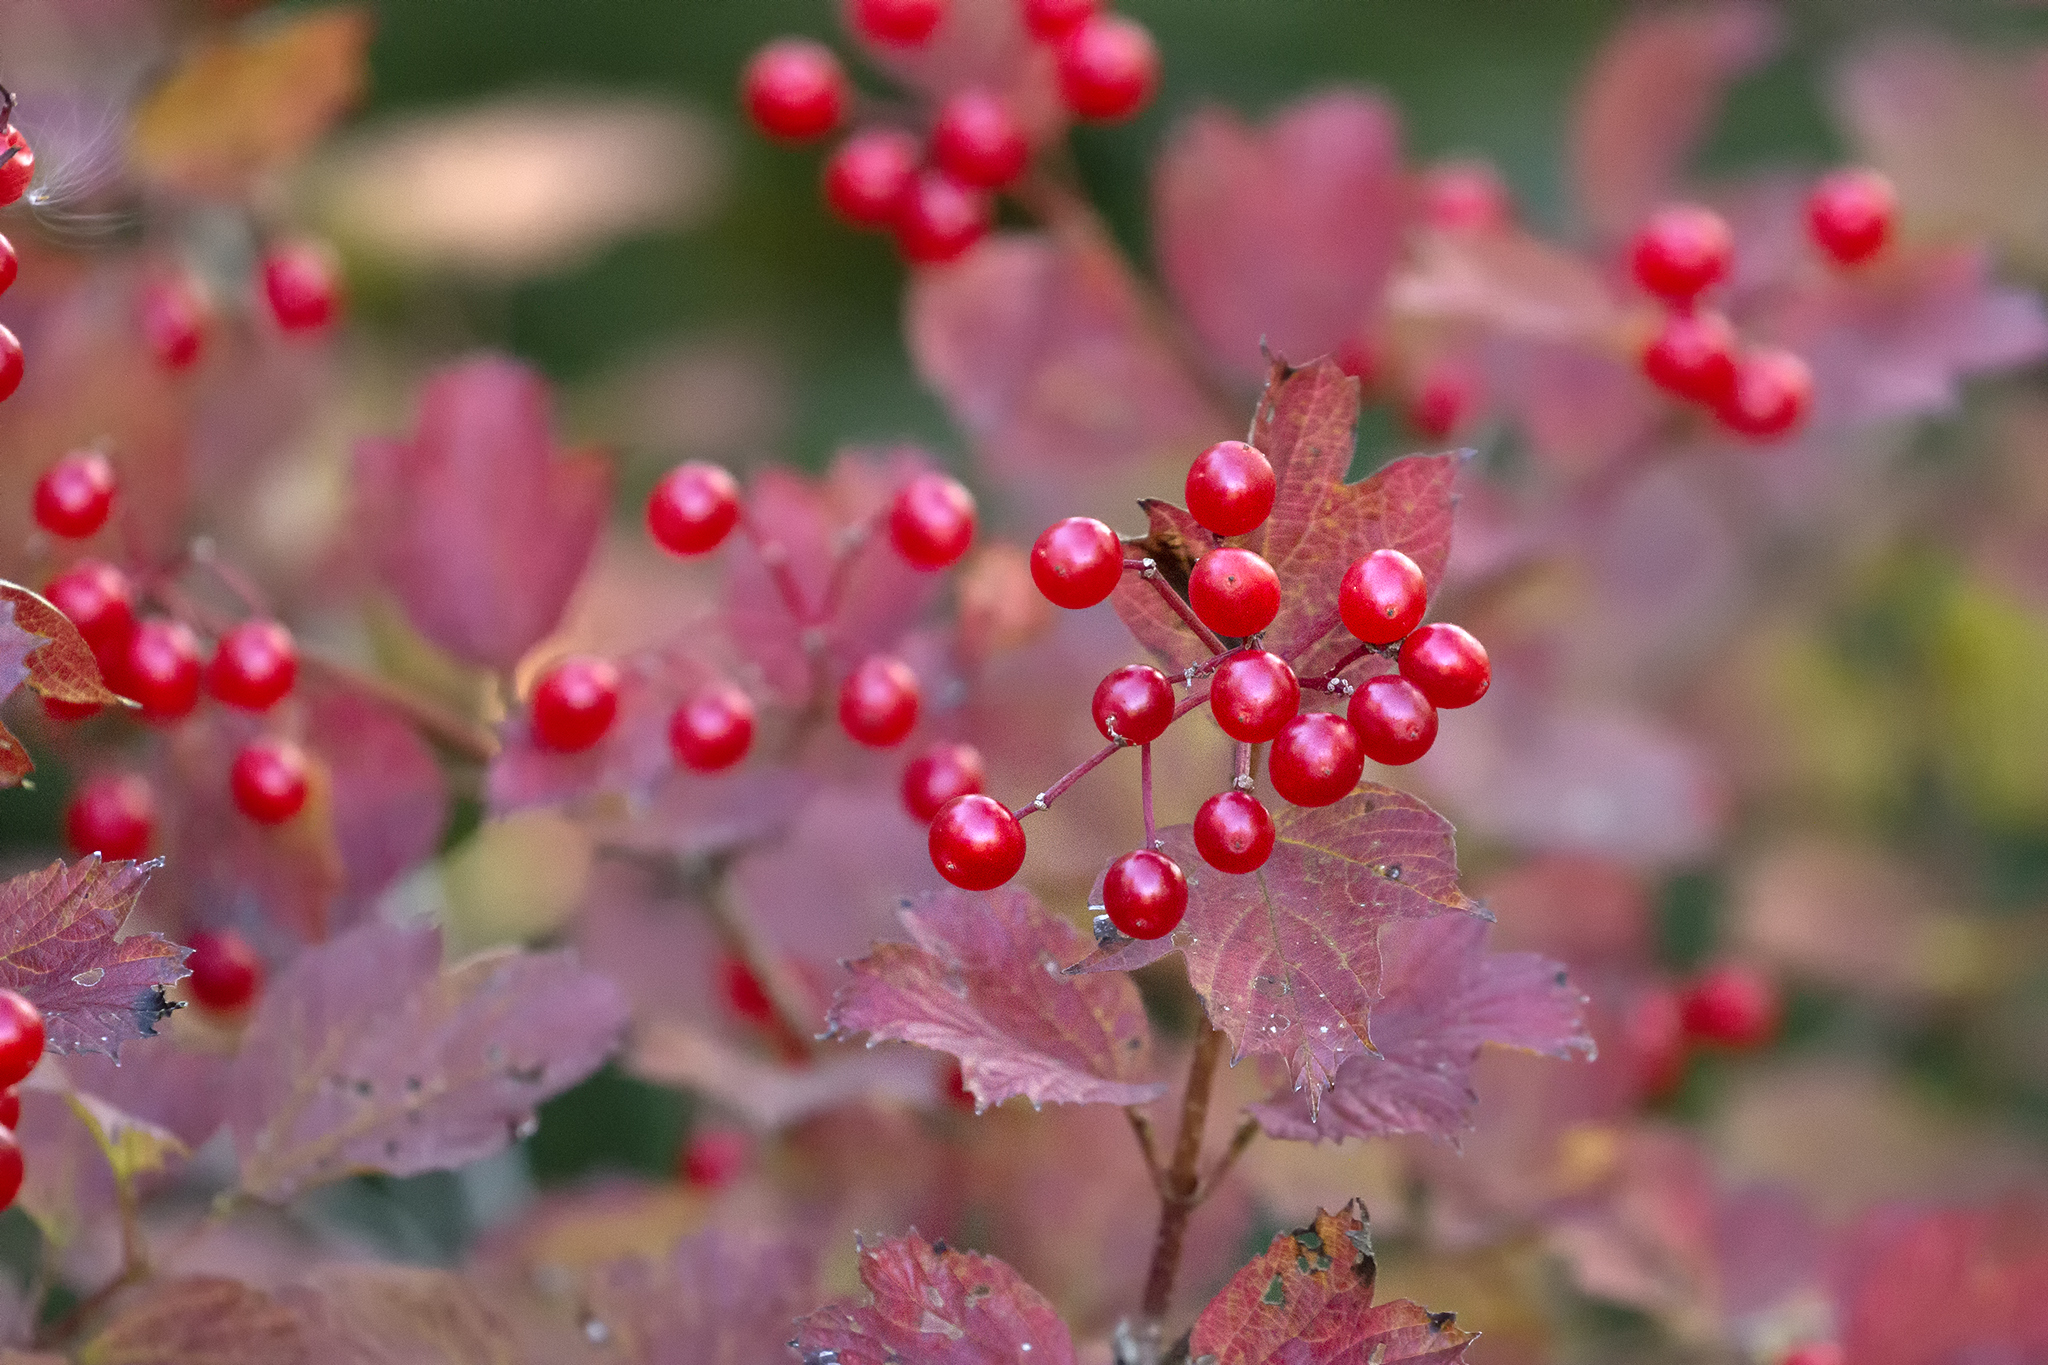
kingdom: Plantae
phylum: Tracheophyta
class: Magnoliopsida
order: Dipsacales
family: Viburnaceae
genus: Viburnum
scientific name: Viburnum opulus
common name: Guelder-rose
